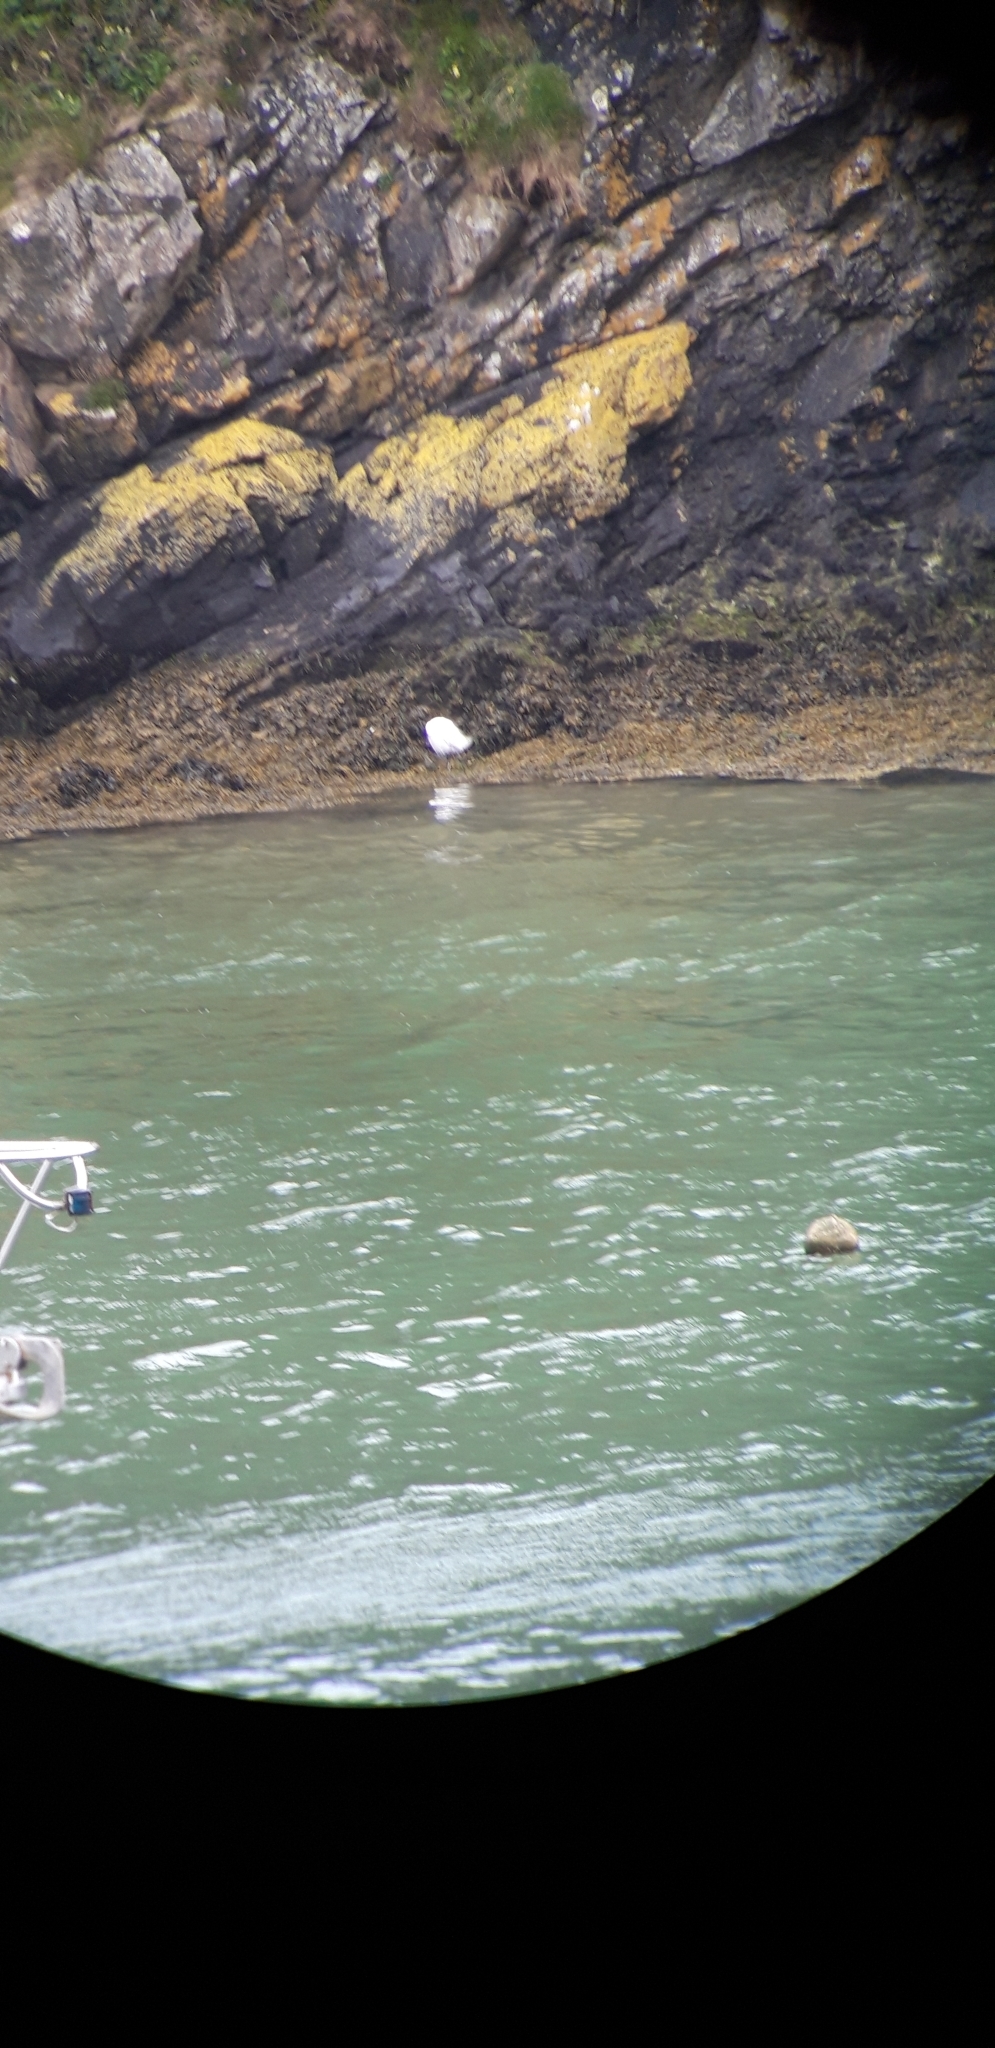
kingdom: Animalia
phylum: Chordata
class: Aves
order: Pelecaniformes
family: Ardeidae
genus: Egretta
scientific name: Egretta garzetta
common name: Little egret
